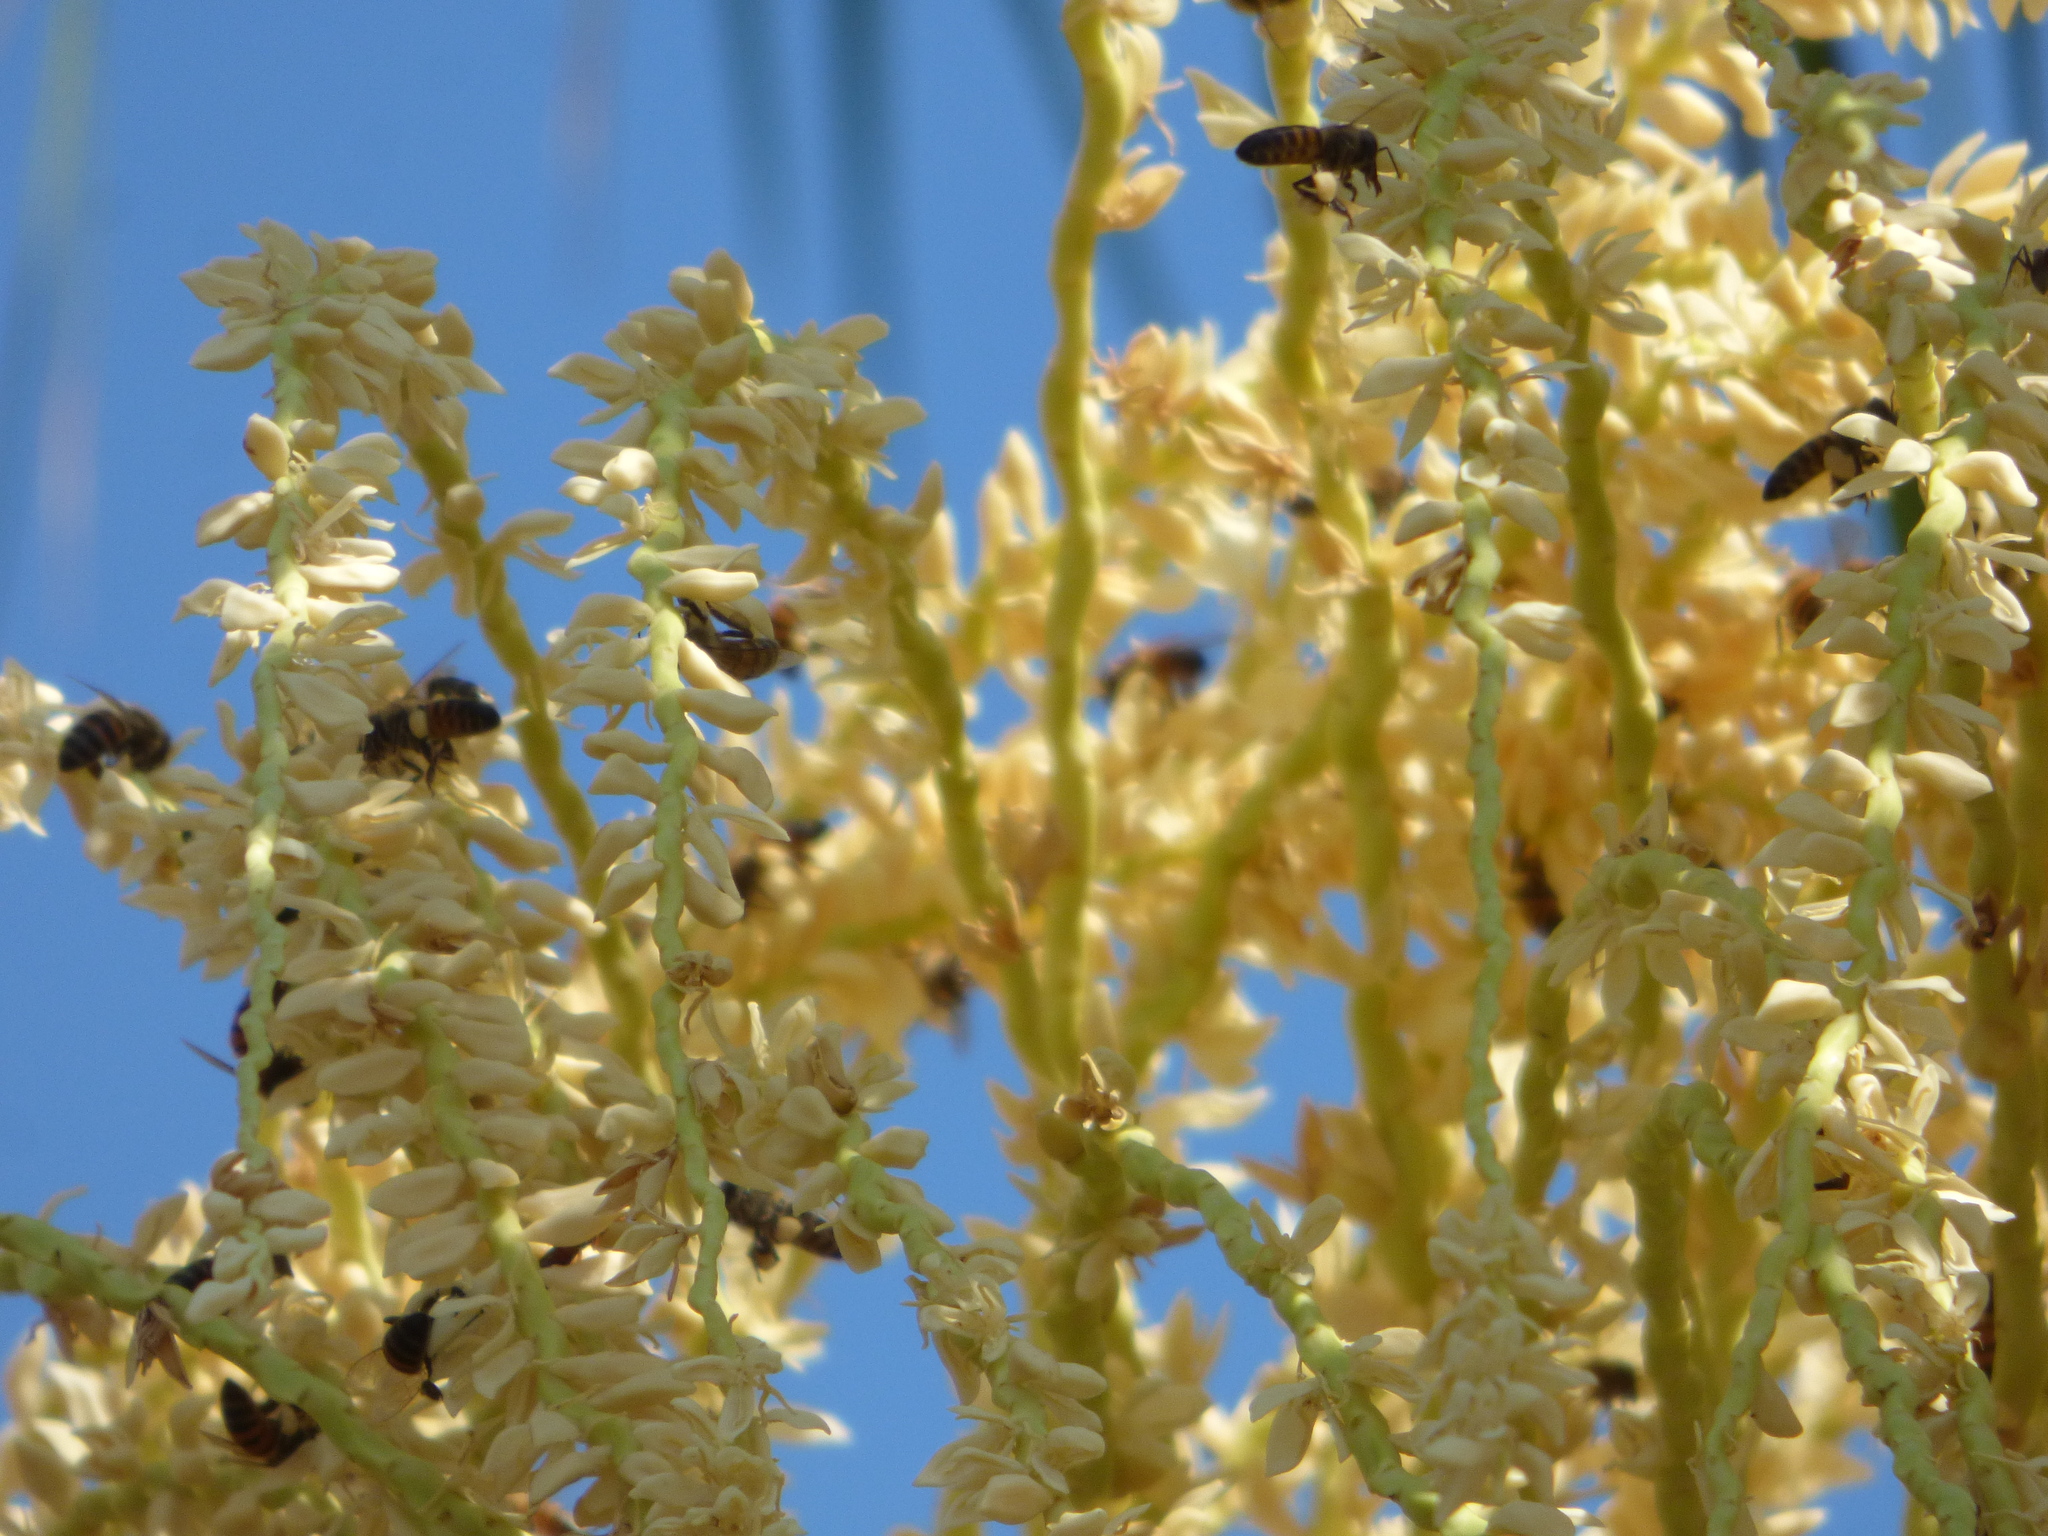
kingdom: Animalia
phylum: Arthropoda
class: Insecta
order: Hymenoptera
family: Apidae
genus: Apis
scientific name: Apis mellifera
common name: Honey bee
